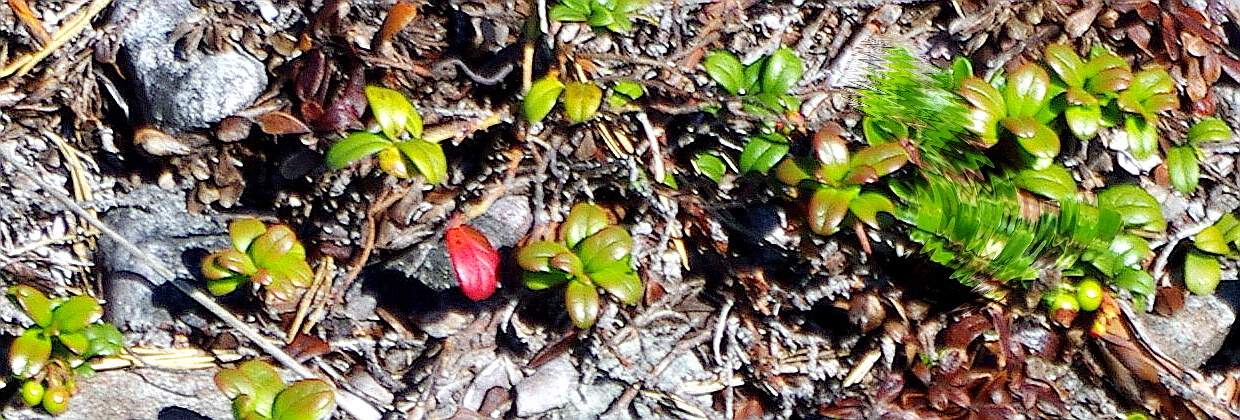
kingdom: Plantae
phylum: Tracheophyta
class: Magnoliopsida
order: Ericales
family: Ericaceae
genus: Vaccinium
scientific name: Vaccinium vitis-idaea
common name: Cowberry
